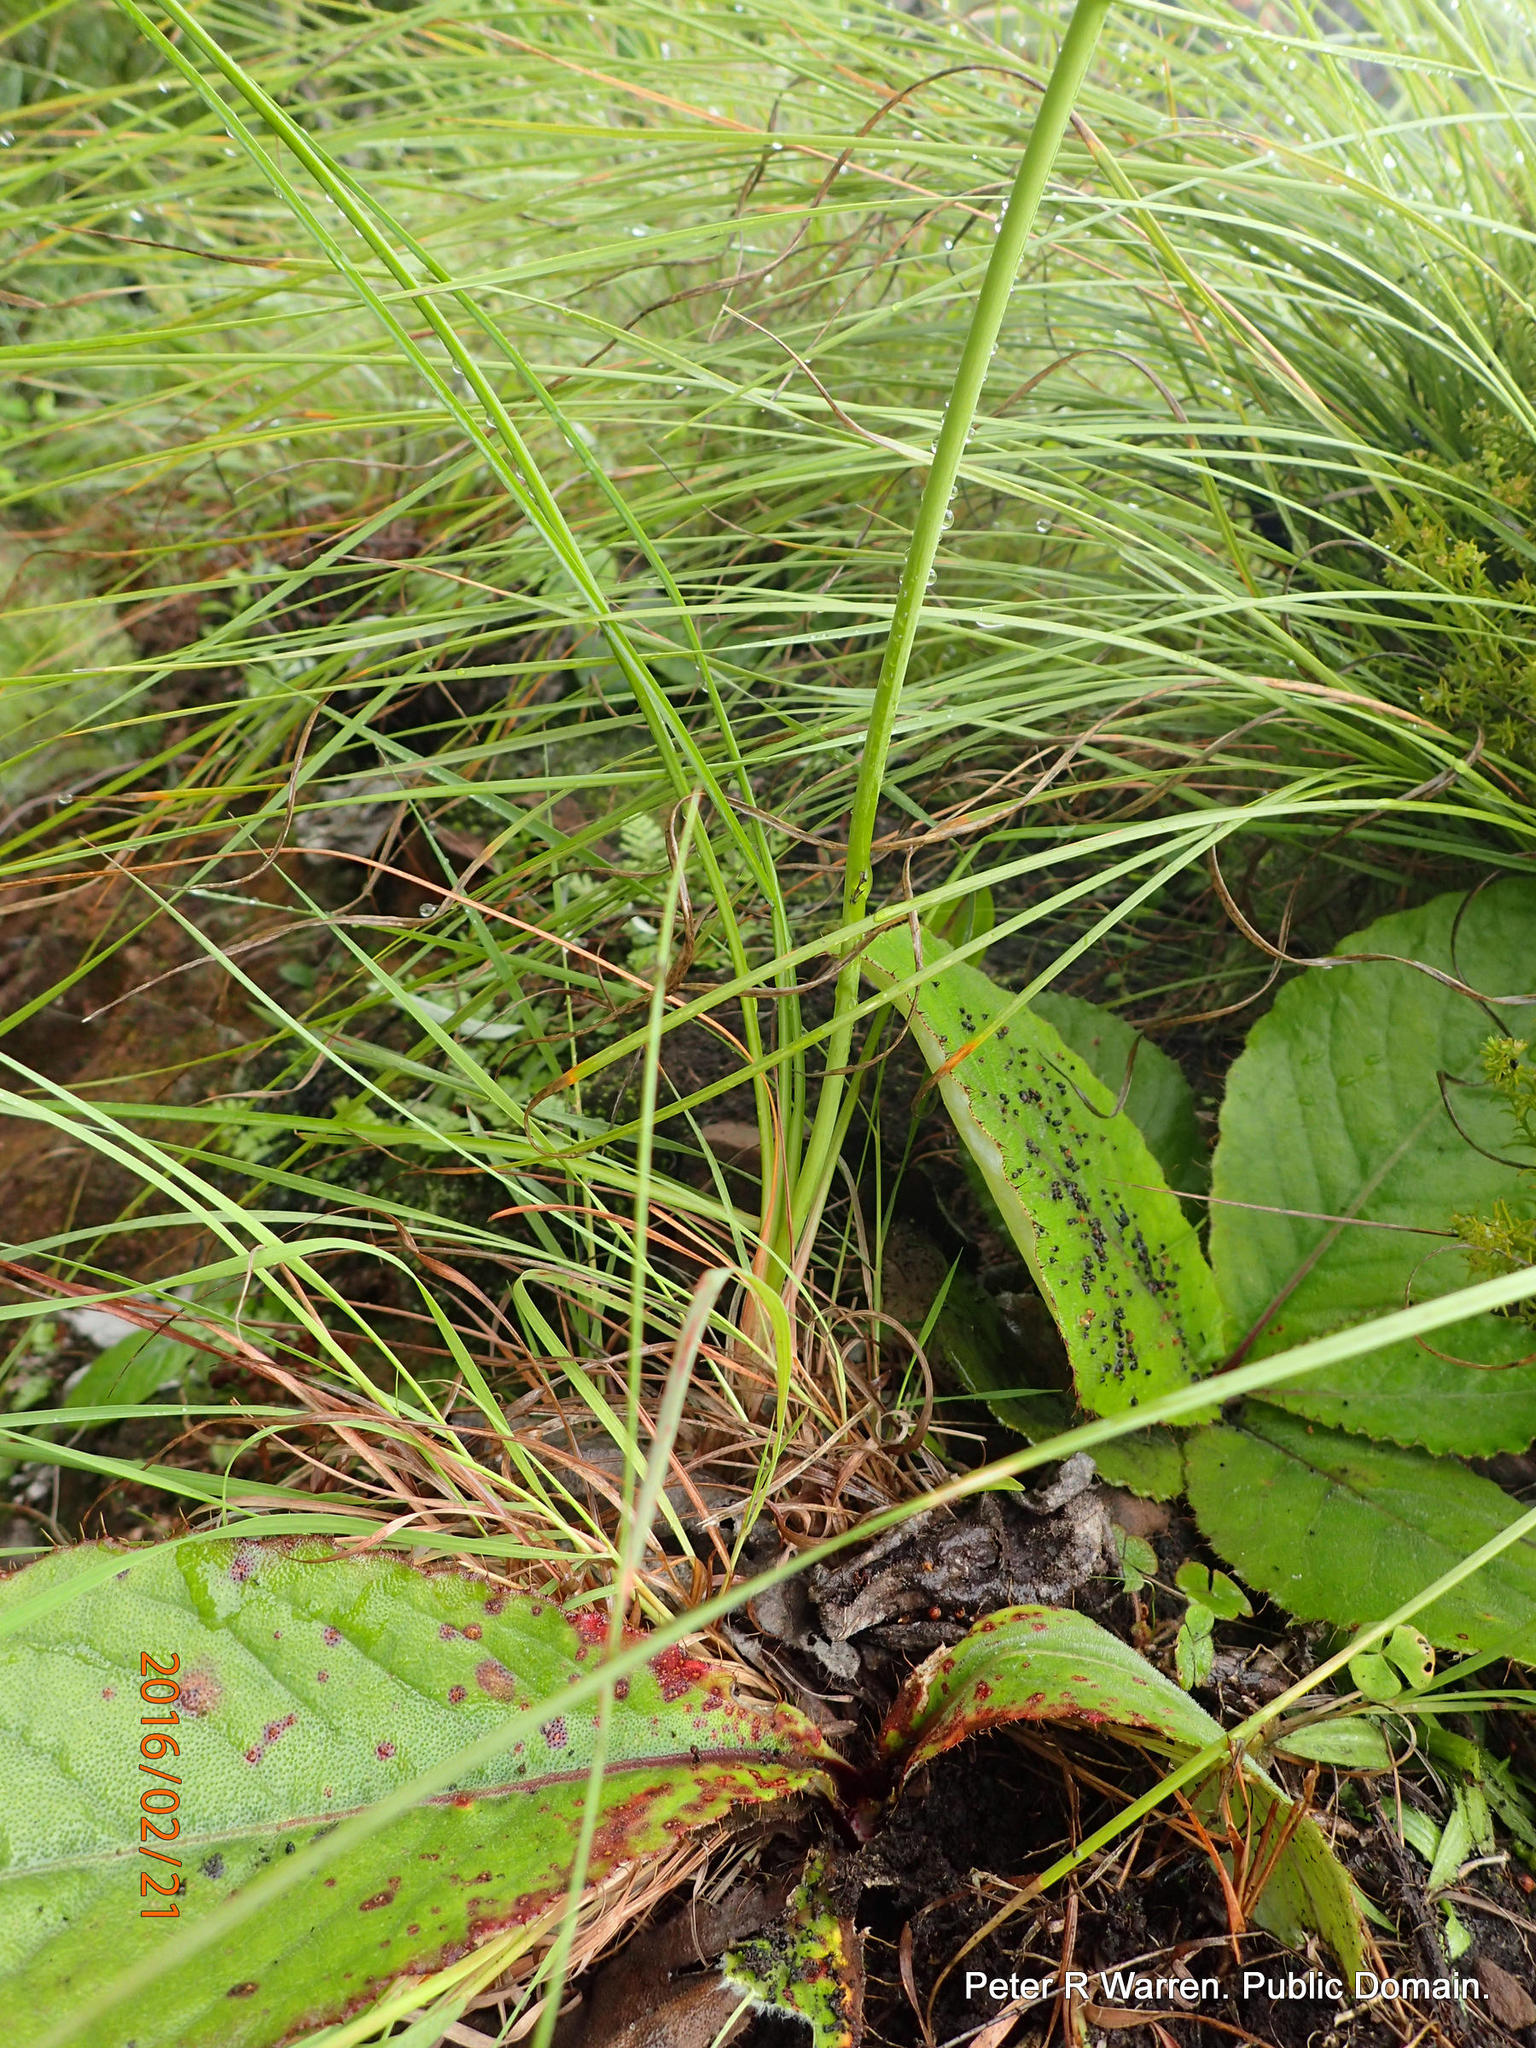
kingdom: Plantae
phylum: Tracheophyta
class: Liliopsida
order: Asparagales
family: Asphodelaceae
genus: Kniphofia
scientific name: Kniphofia breviflora
